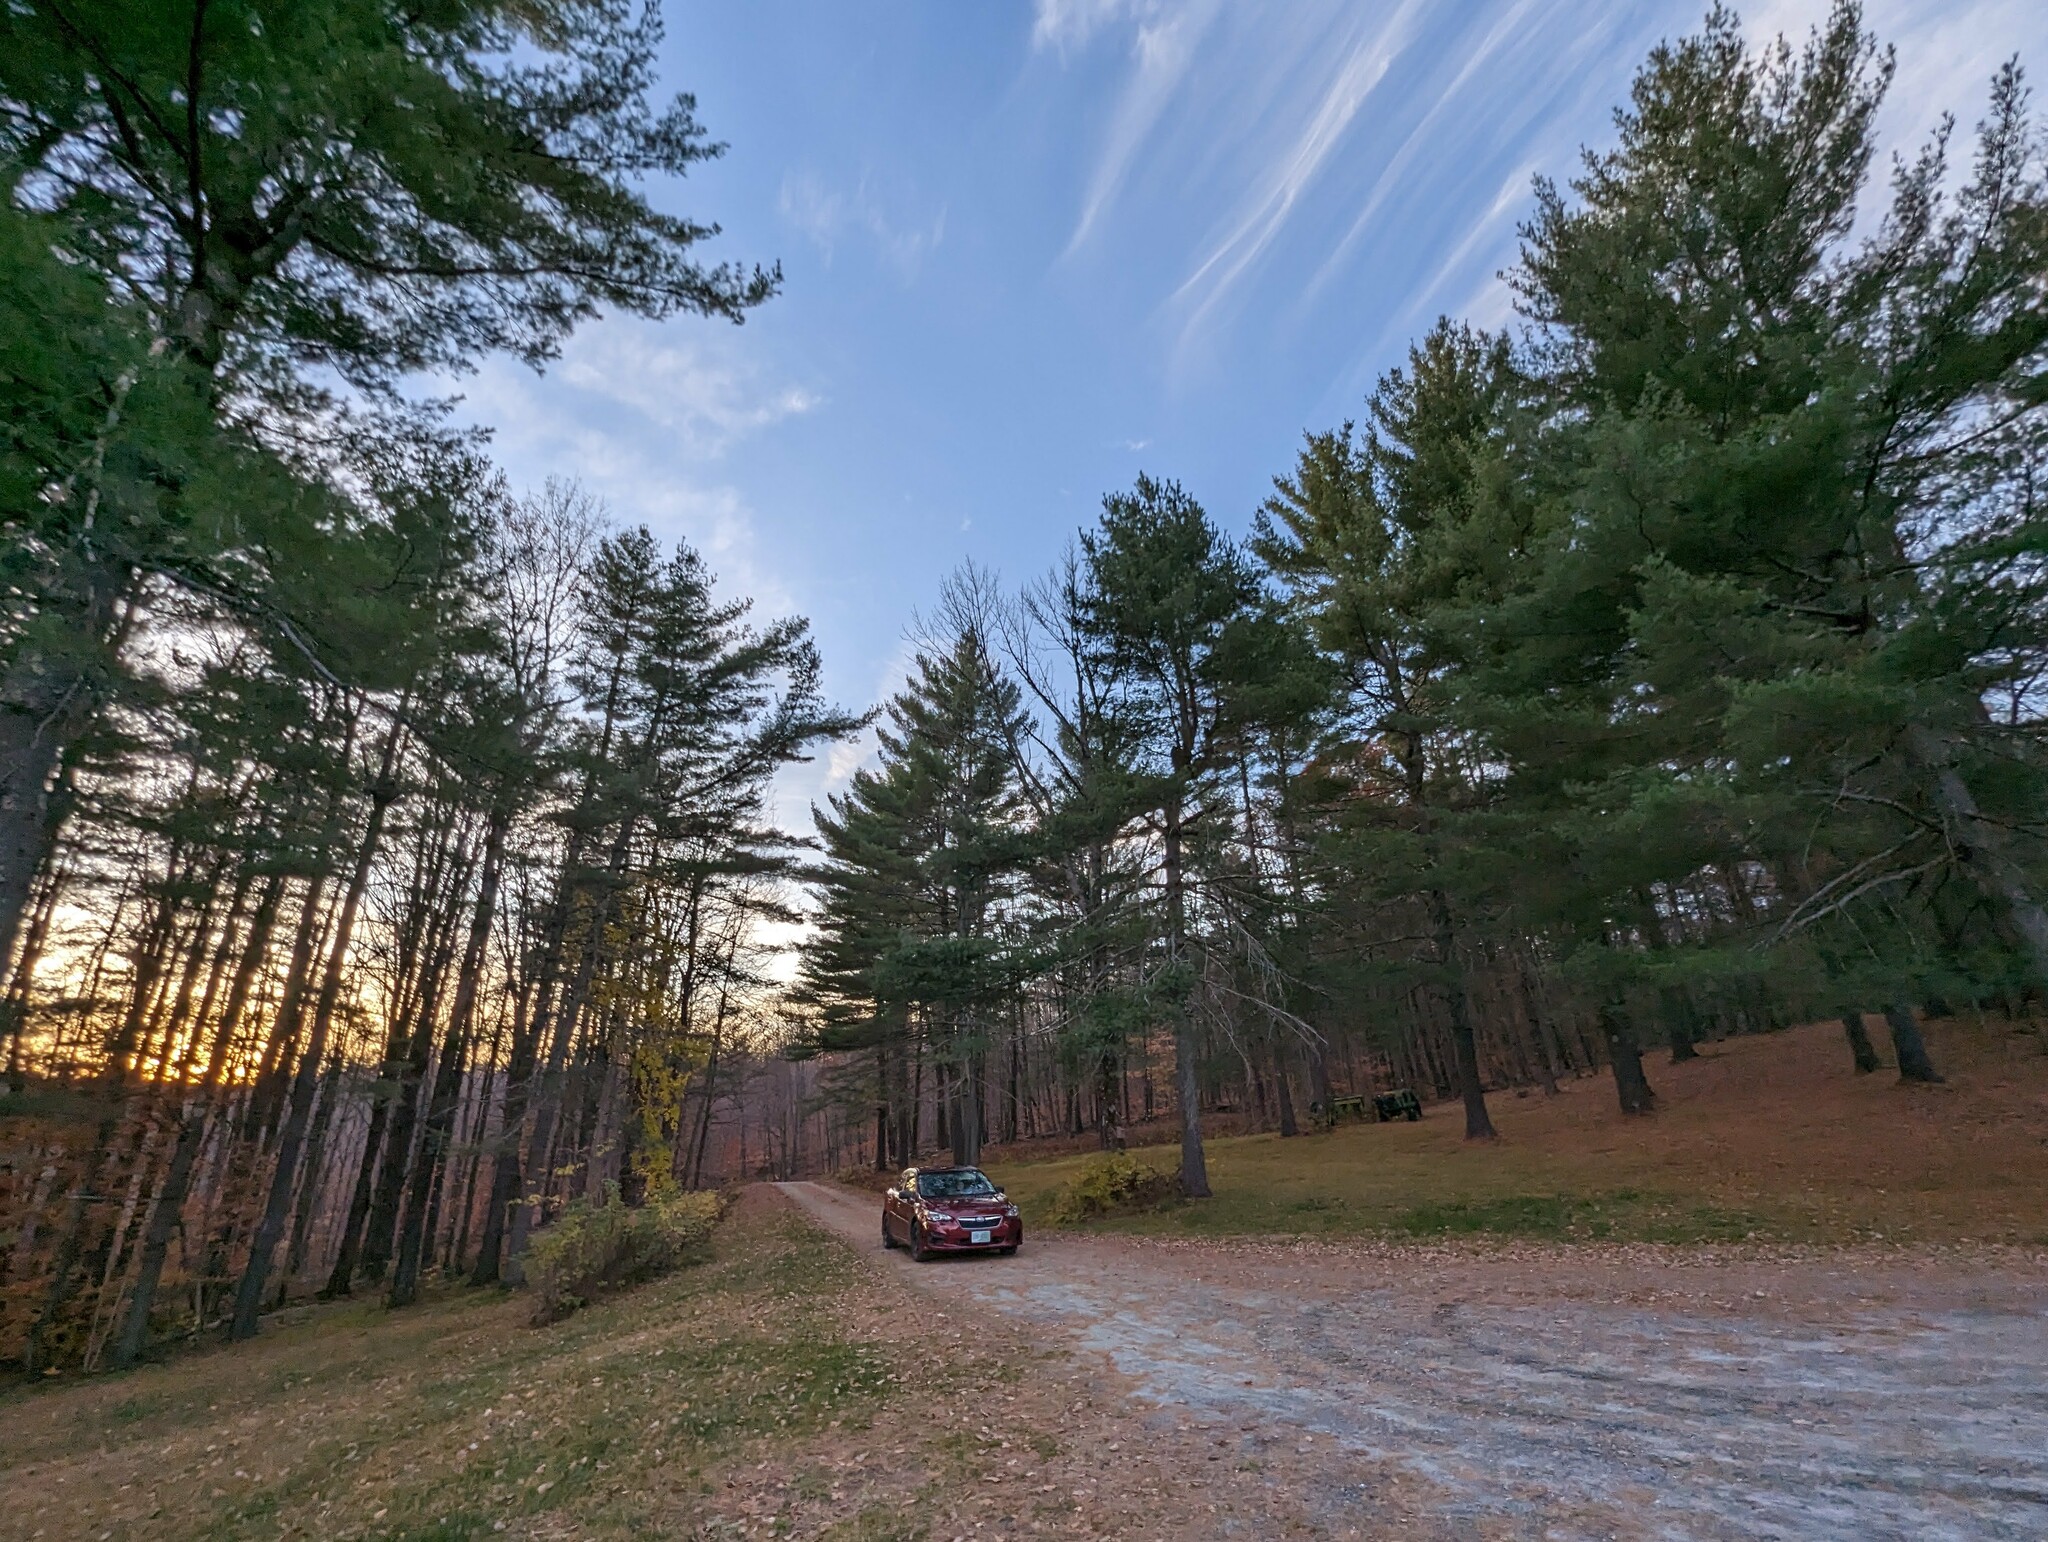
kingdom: Plantae
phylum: Tracheophyta
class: Pinopsida
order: Pinales
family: Pinaceae
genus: Pinus
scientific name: Pinus strobus
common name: Weymouth pine
